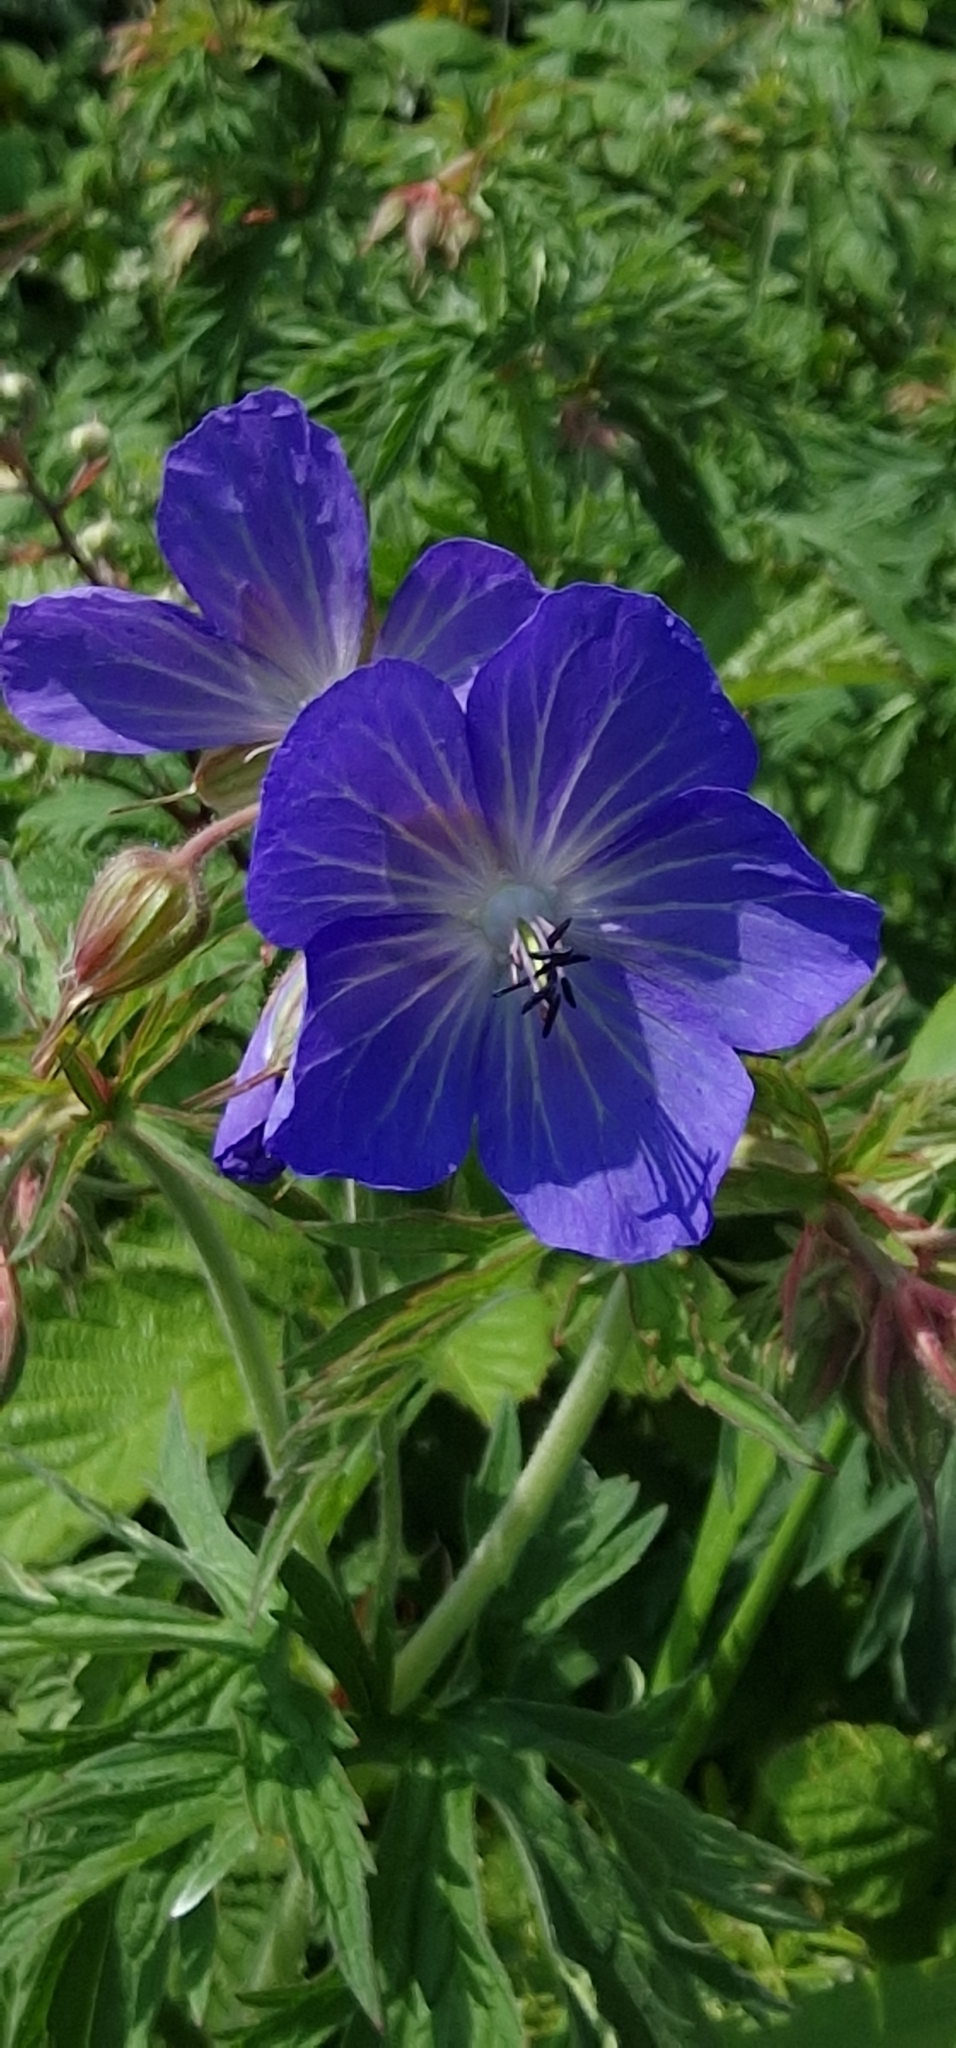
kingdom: Plantae
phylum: Tracheophyta
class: Magnoliopsida
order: Geraniales
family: Geraniaceae
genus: Geranium
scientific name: Geranium pratense
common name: Meadow crane's-bill
